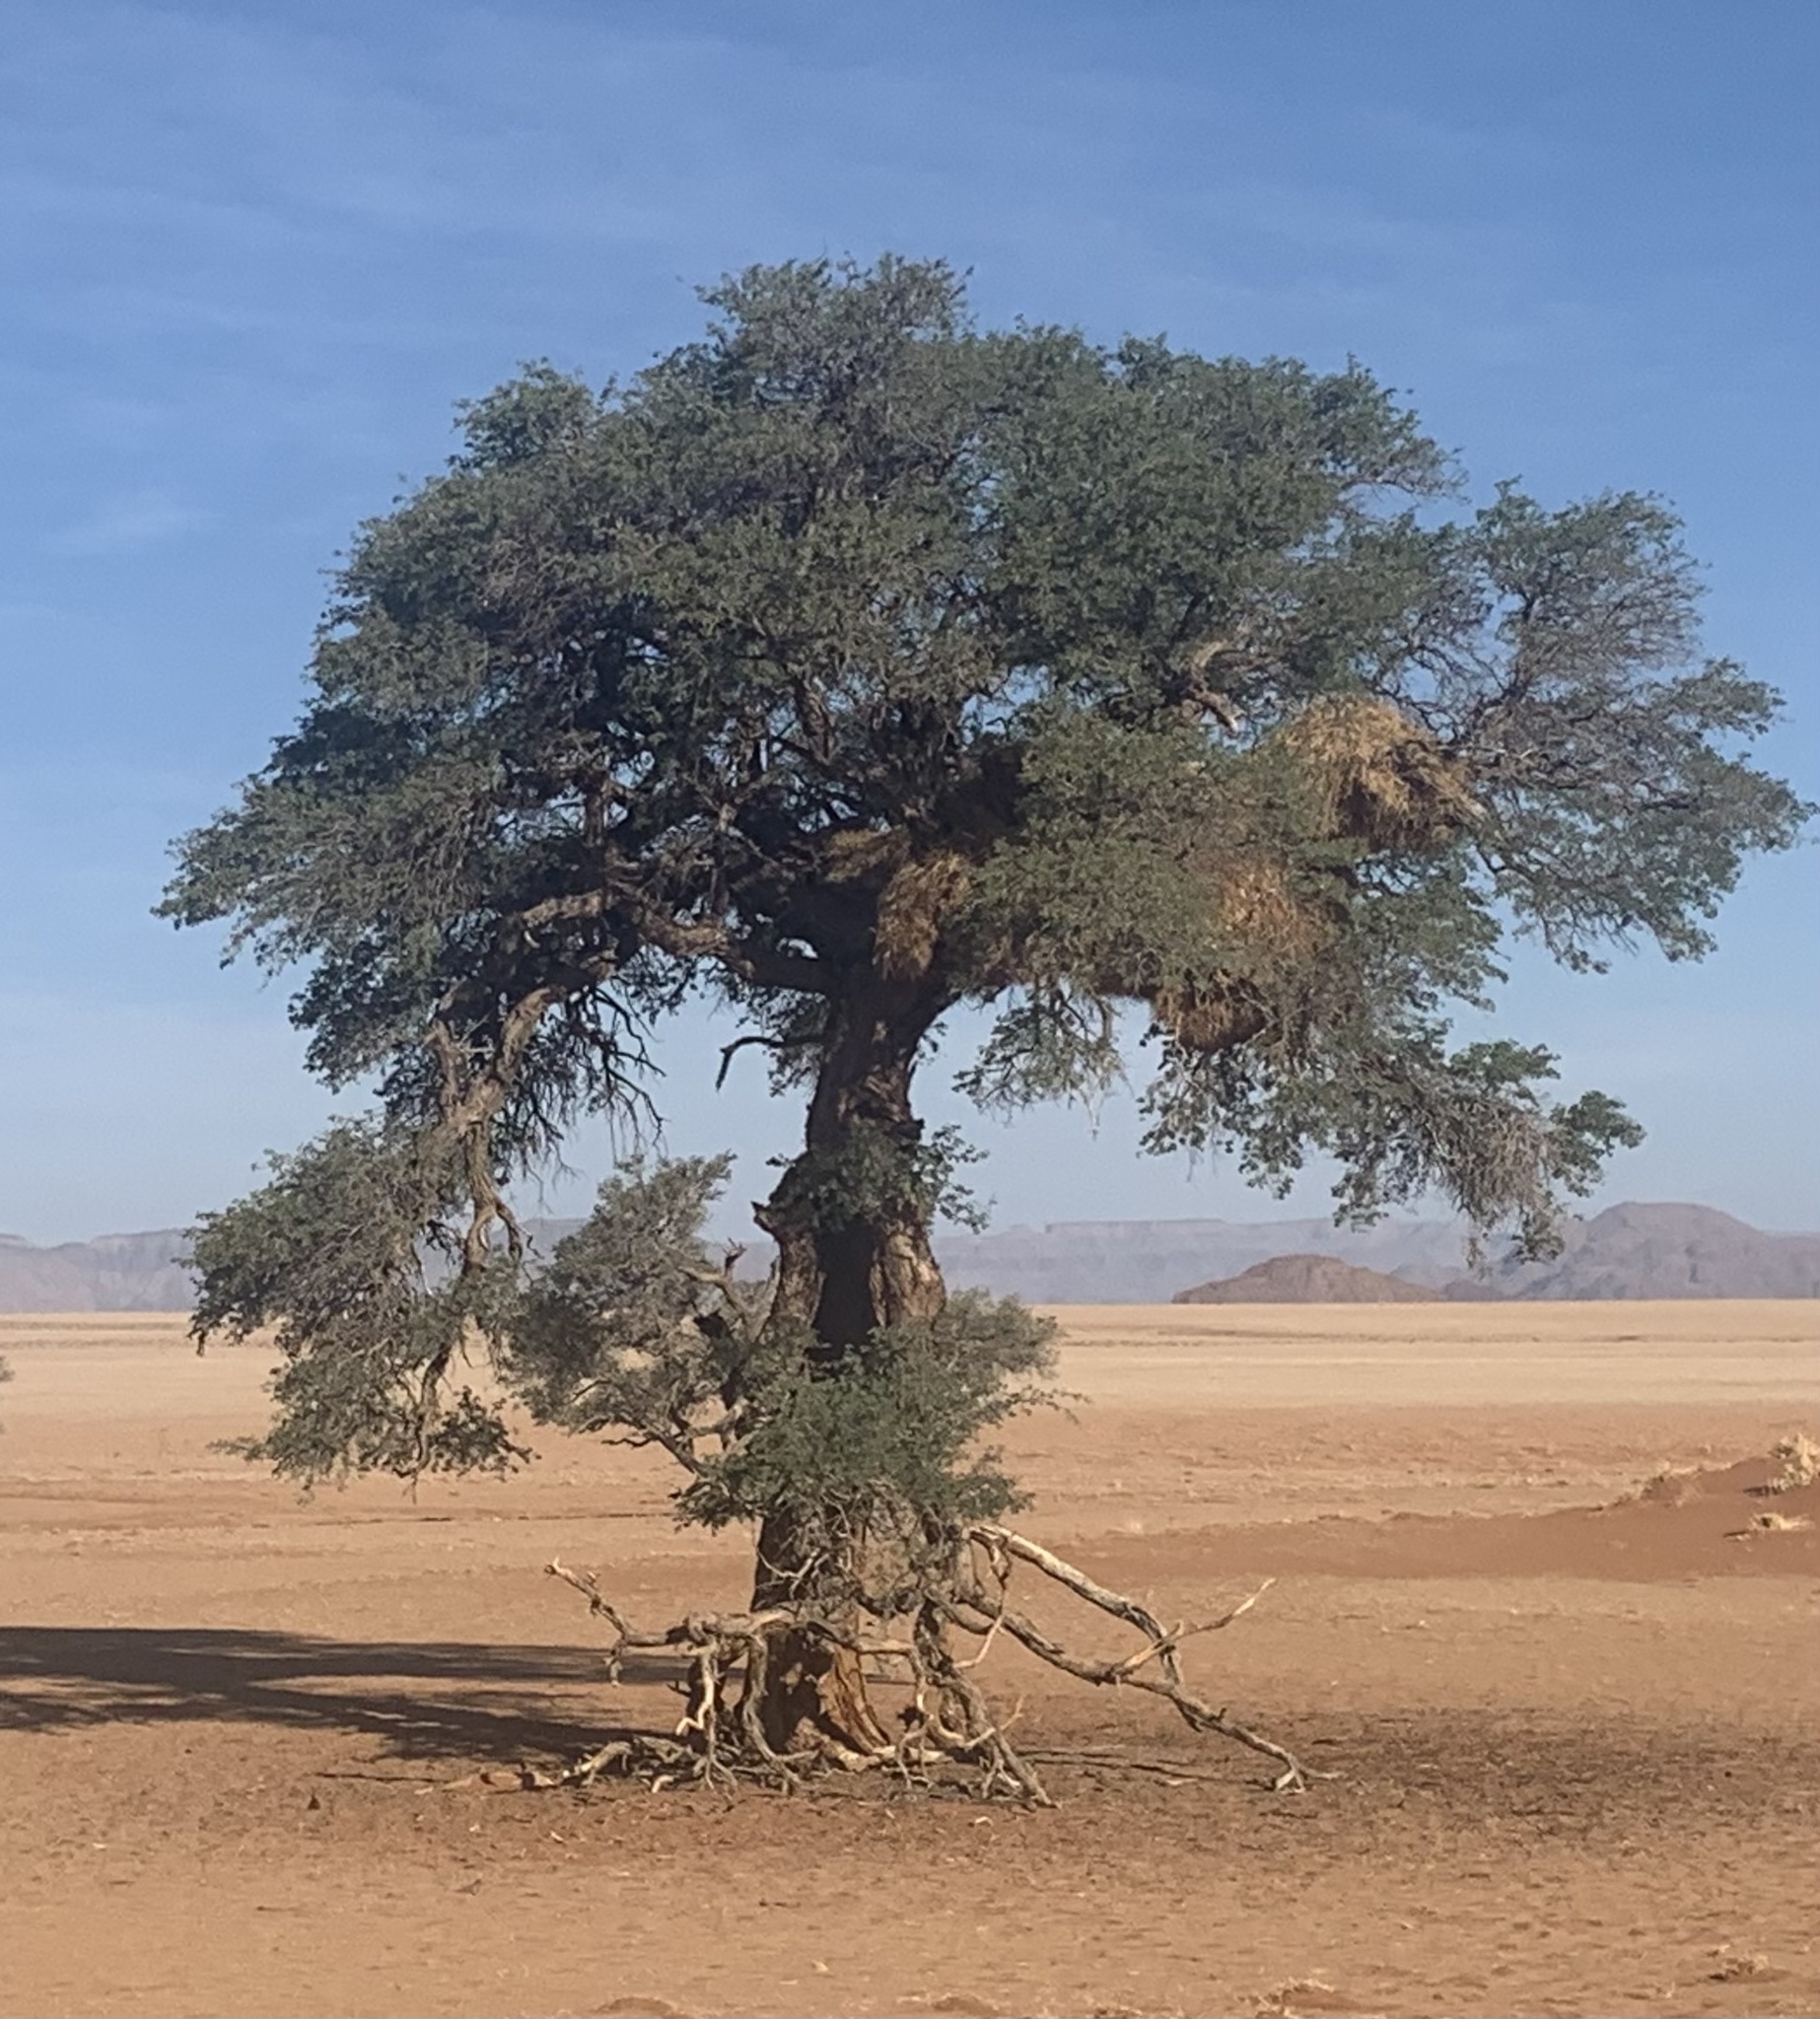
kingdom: Plantae
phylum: Tracheophyta
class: Magnoliopsida
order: Fabales
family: Fabaceae
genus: Vachellia
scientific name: Vachellia erioloba
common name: Camel thorn
